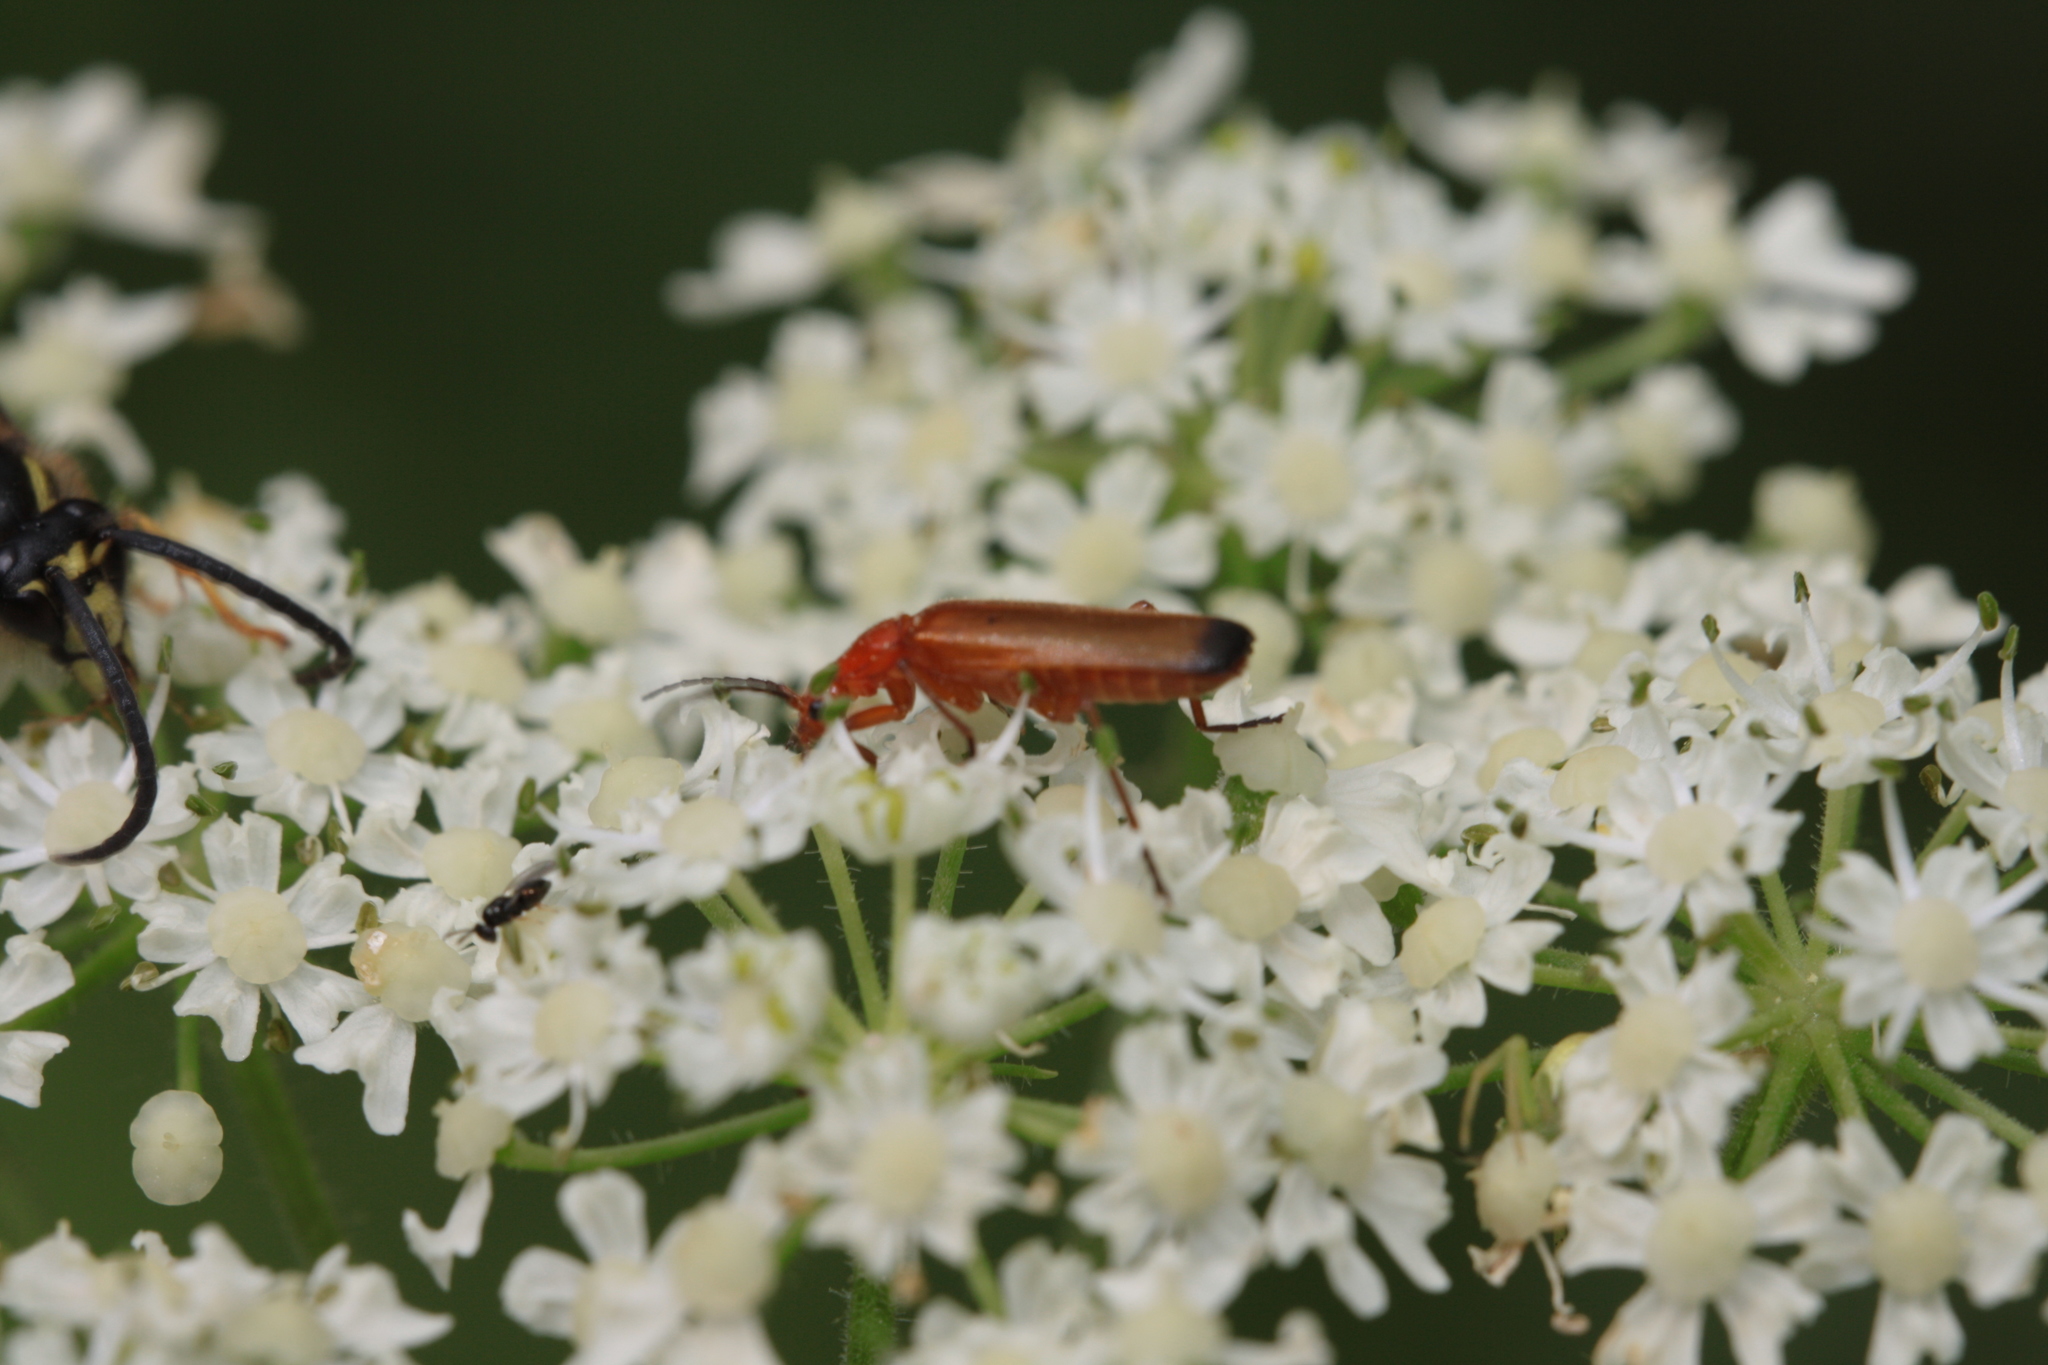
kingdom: Animalia
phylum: Arthropoda
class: Insecta
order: Coleoptera
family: Cantharidae
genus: Rhagonycha
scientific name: Rhagonycha fulva
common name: Common red soldier beetle
